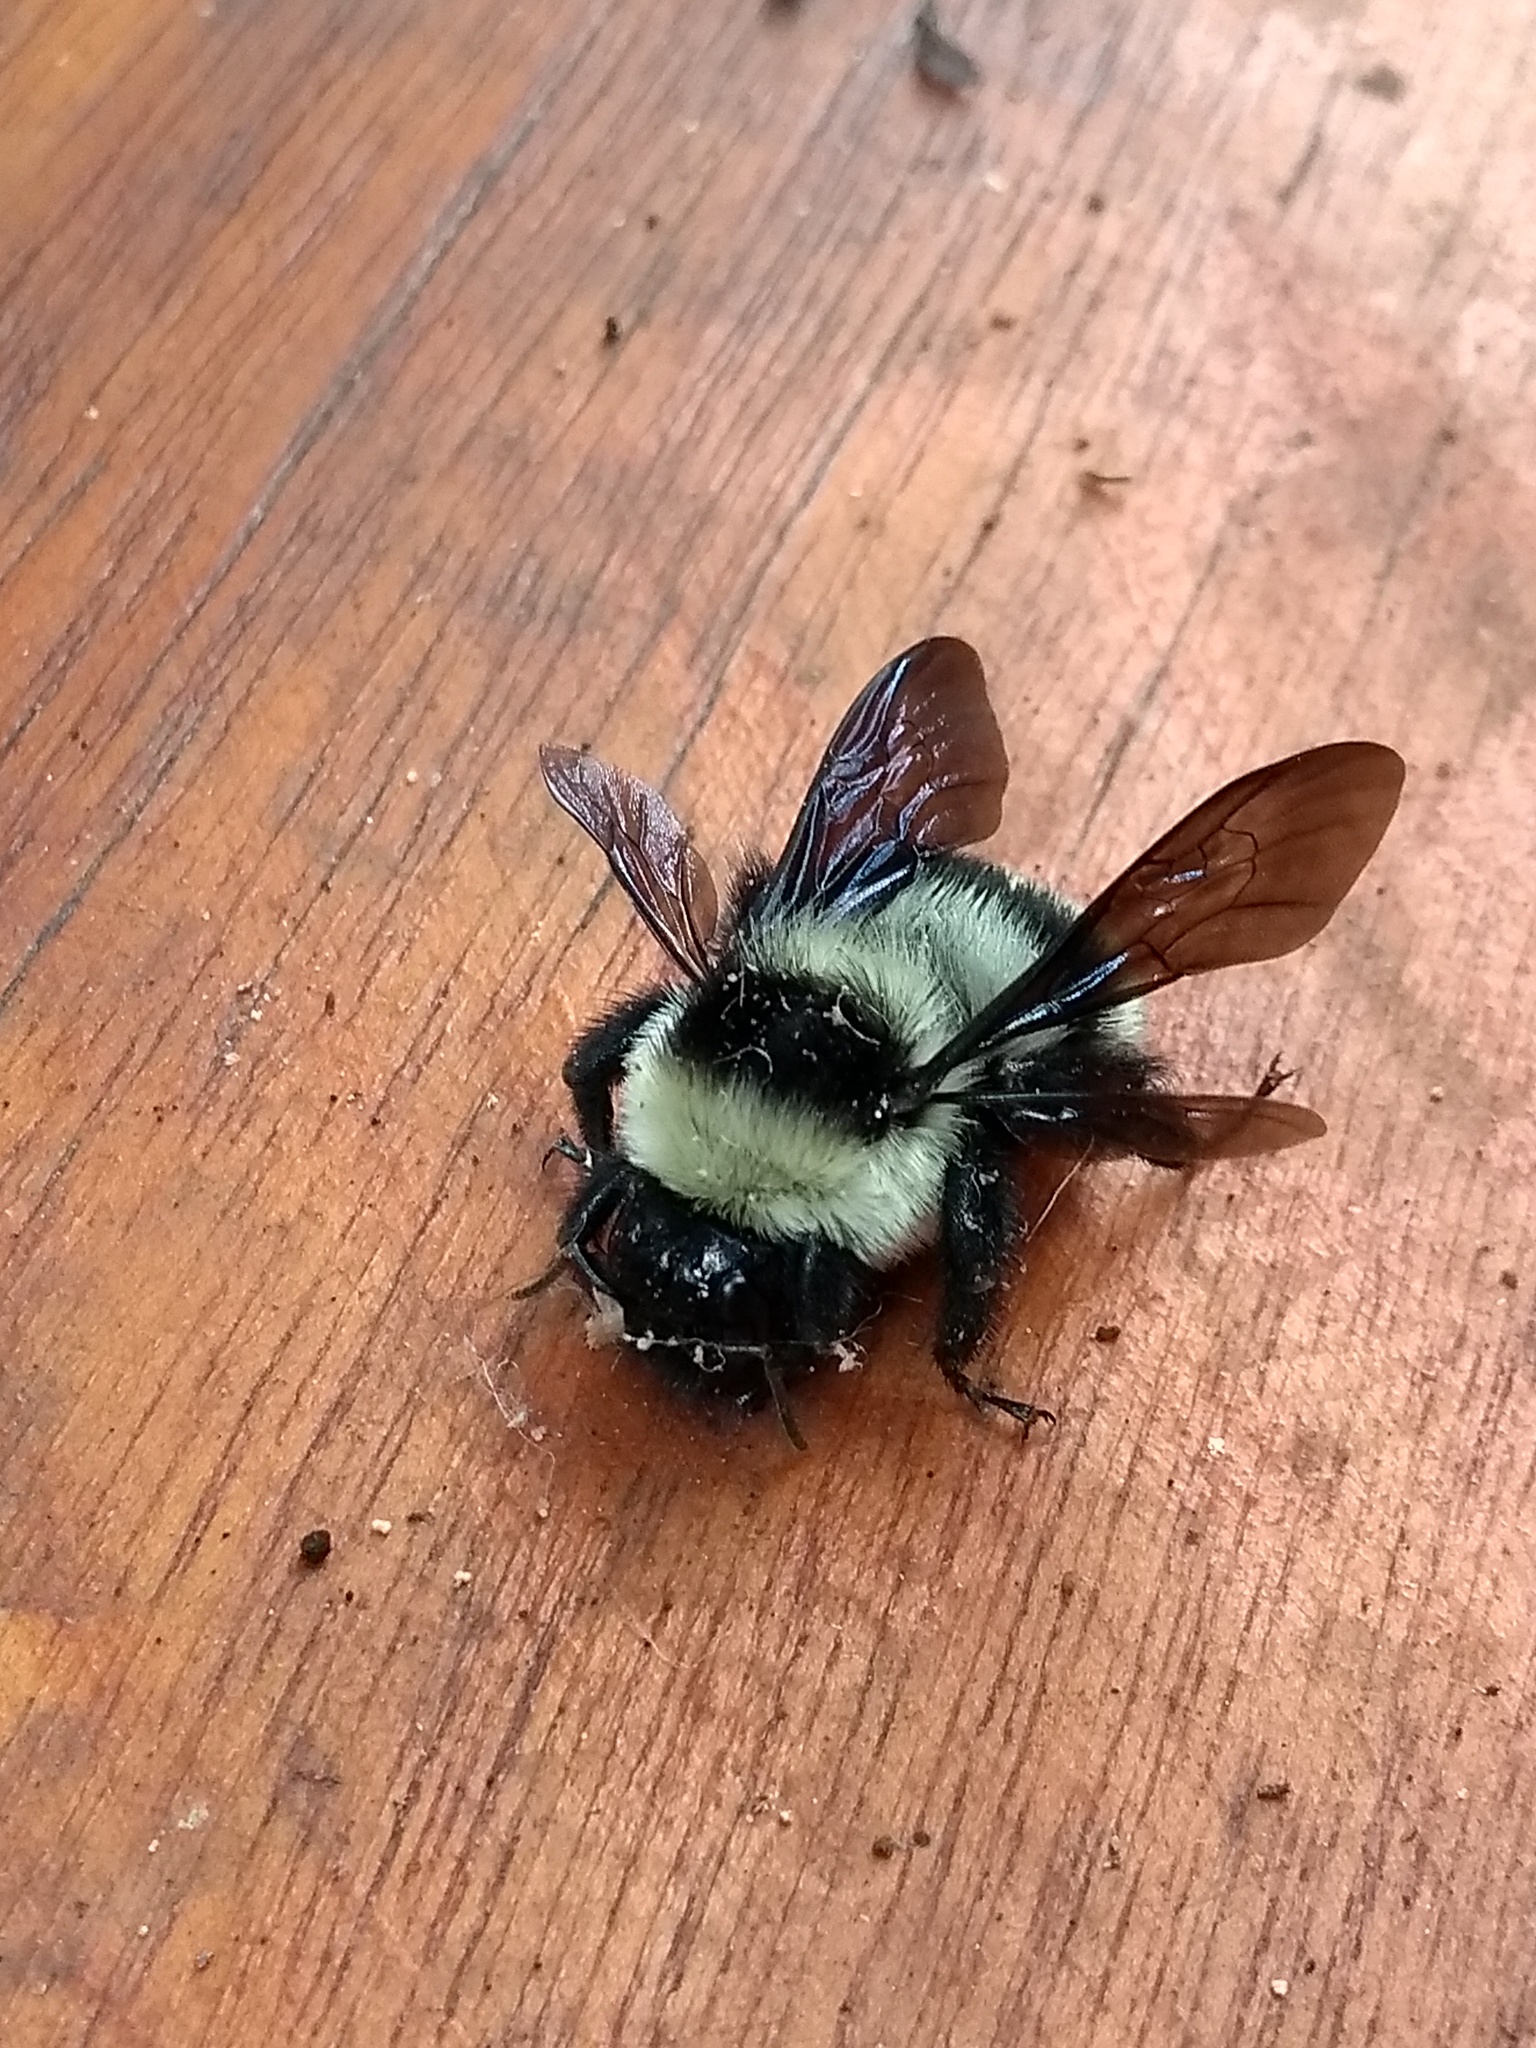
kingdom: Animalia
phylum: Arthropoda
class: Insecta
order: Hymenoptera
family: Apidae
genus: Bombus
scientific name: Bombus brasiliensis
